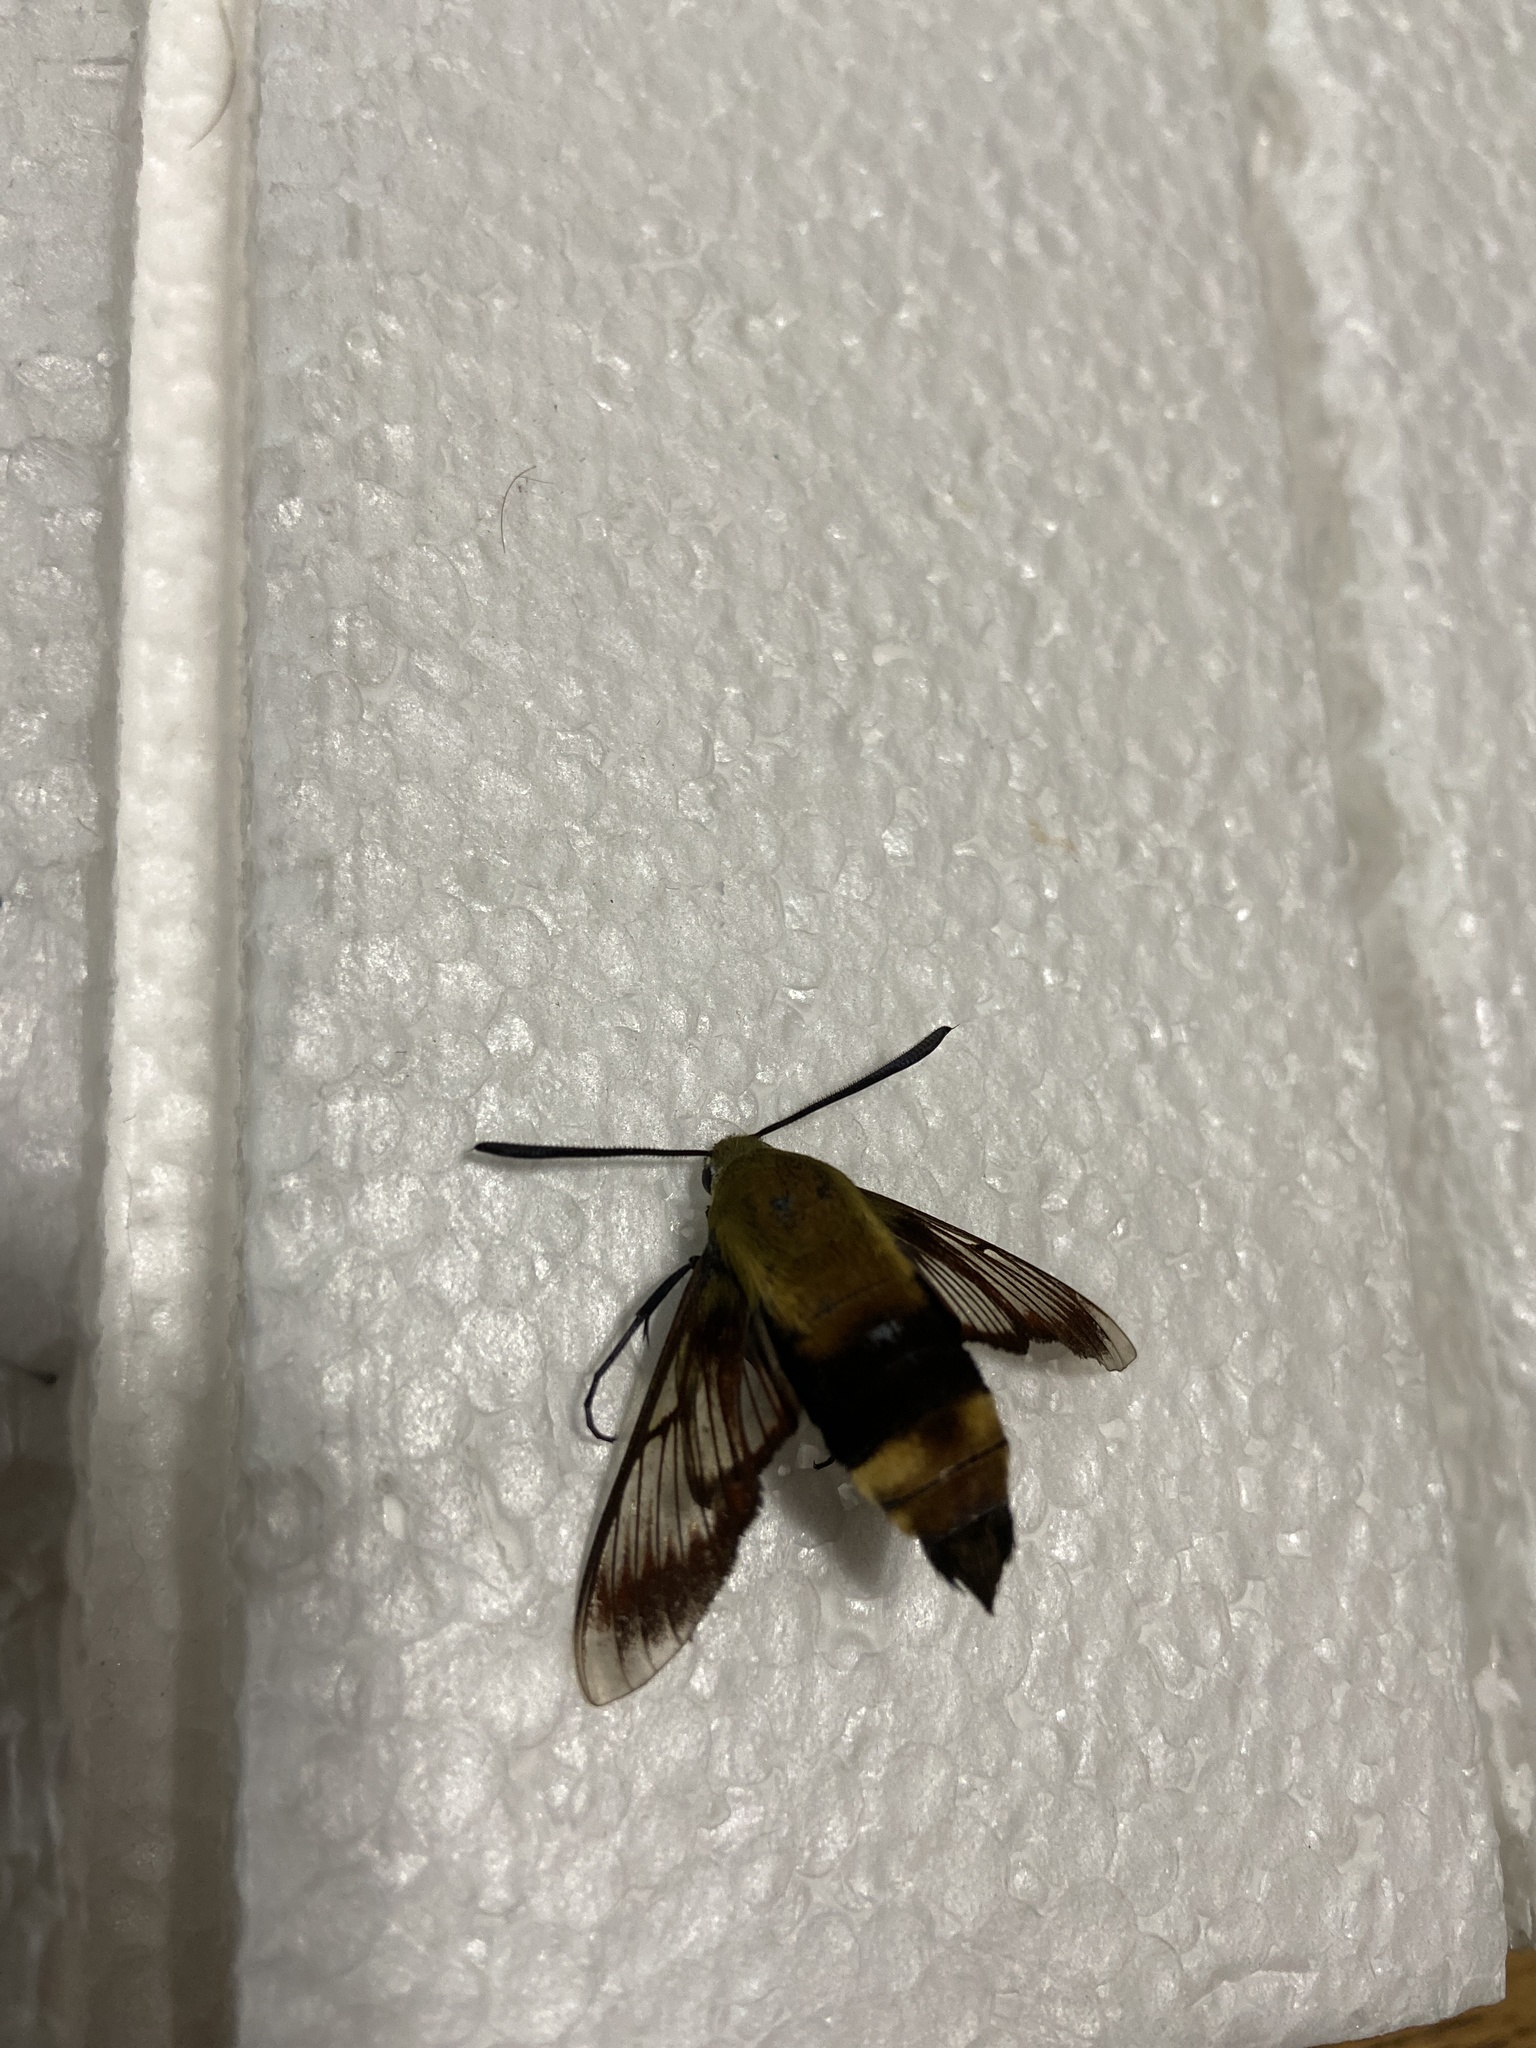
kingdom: Animalia
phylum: Arthropoda
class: Insecta
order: Lepidoptera
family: Sphingidae
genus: Hemaris
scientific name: Hemaris diffinis
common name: Bumblebee moth
